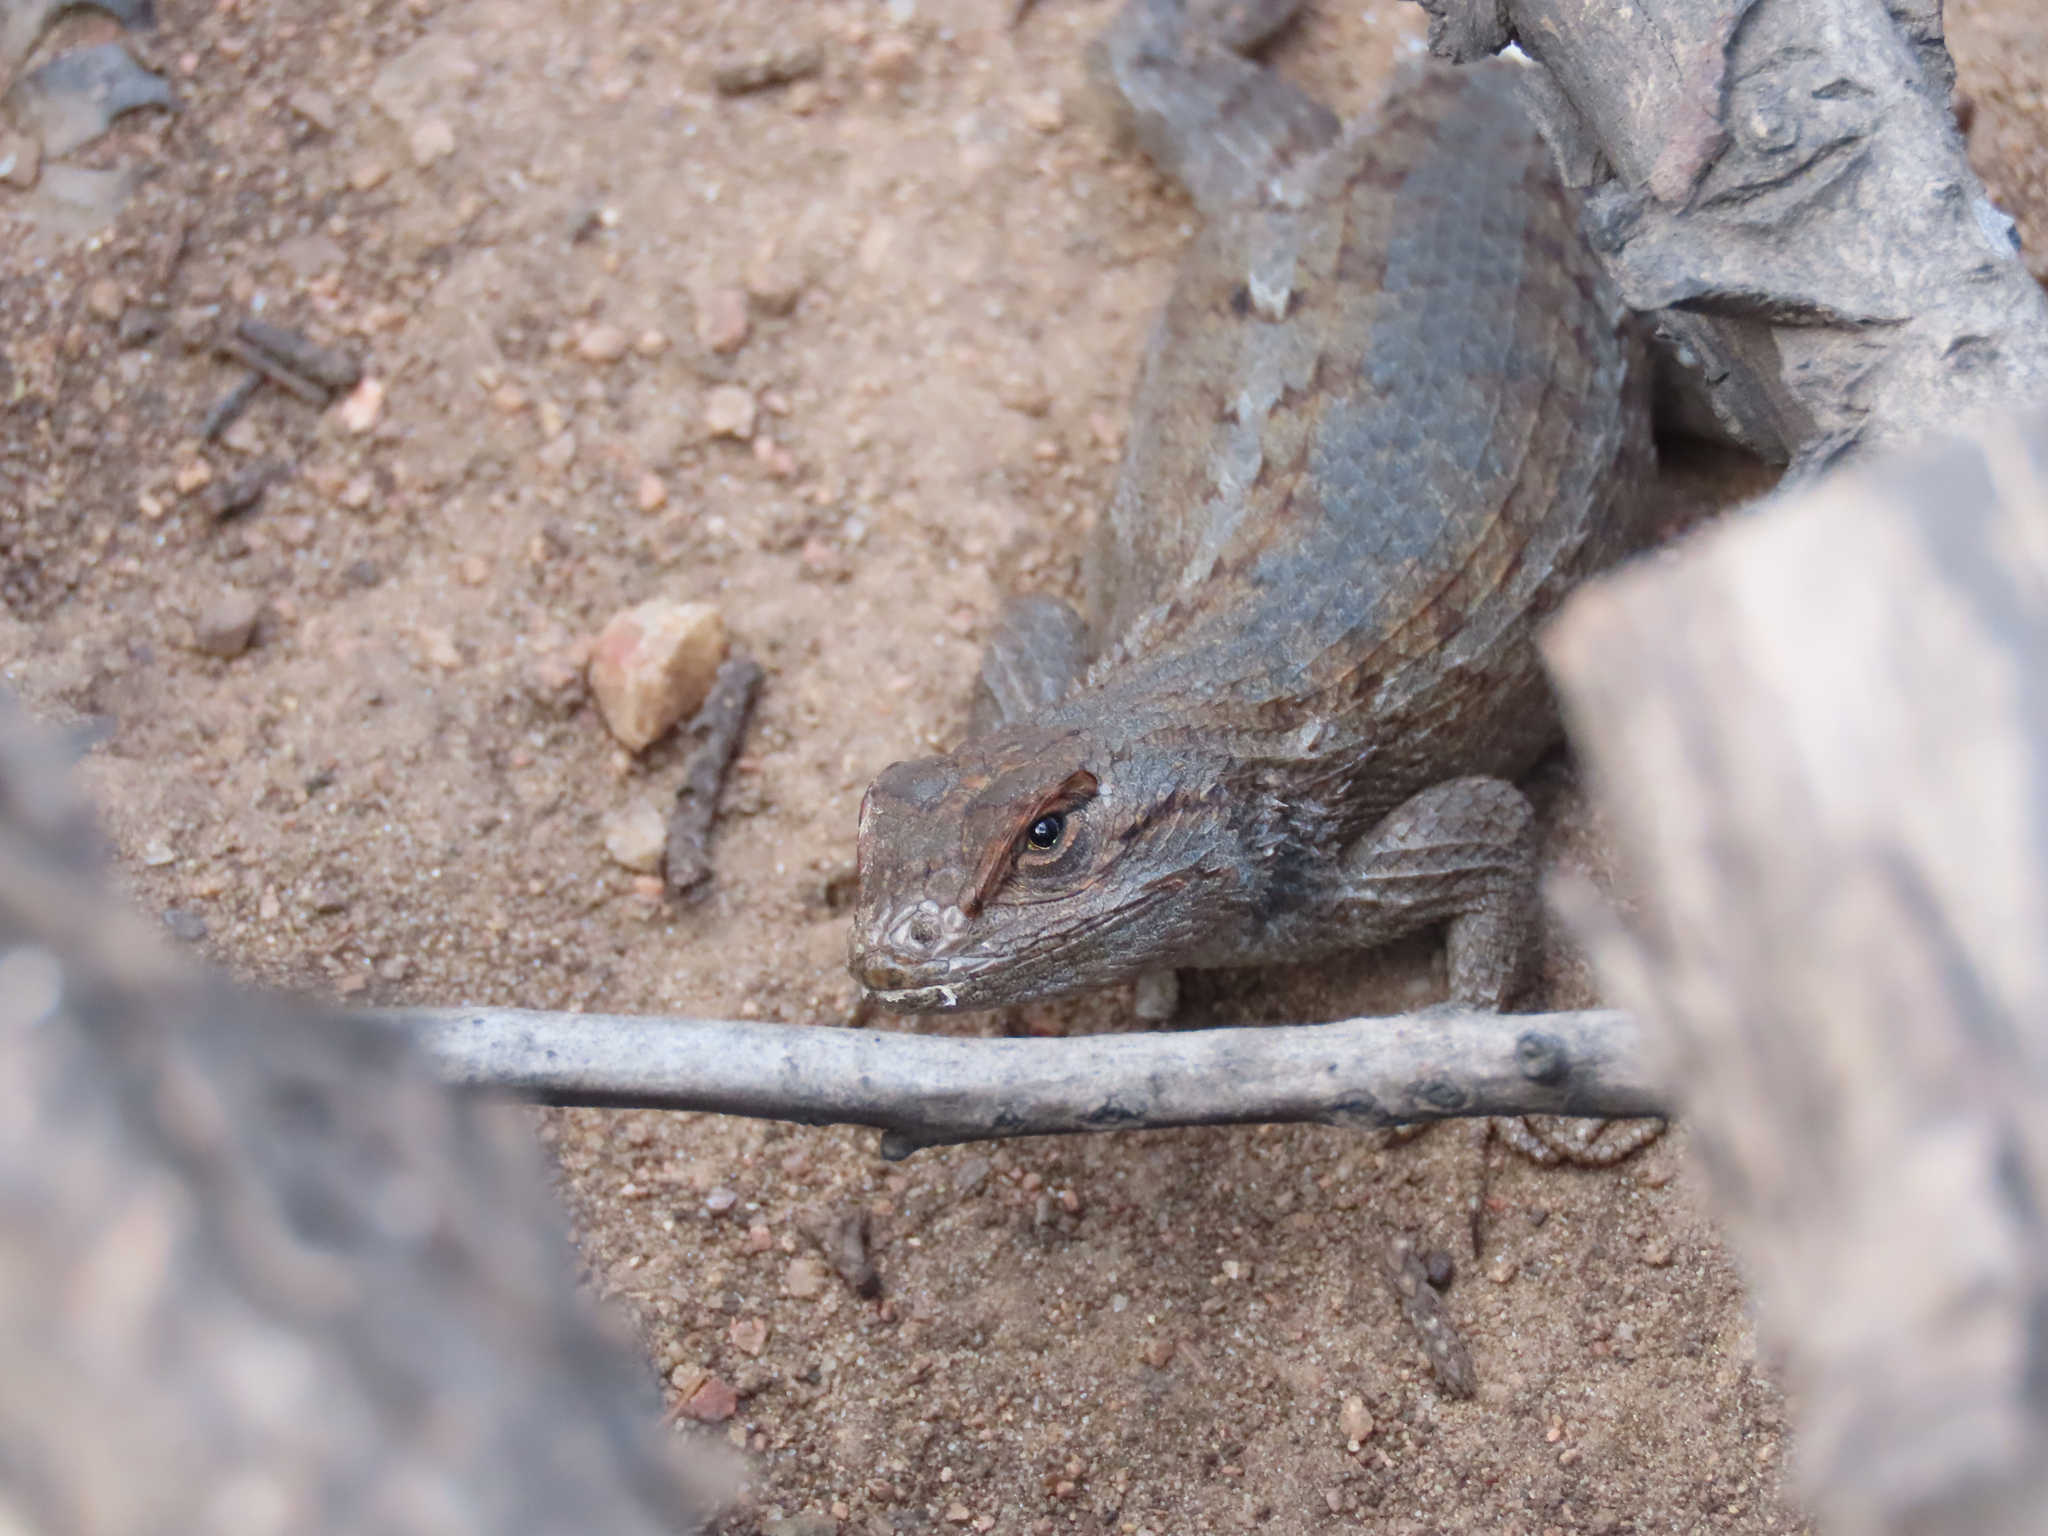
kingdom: Animalia
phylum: Chordata
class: Squamata
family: Phrynosomatidae
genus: Sceloporus
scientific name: Sceloporus tristichus
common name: Plateau fence lizard
